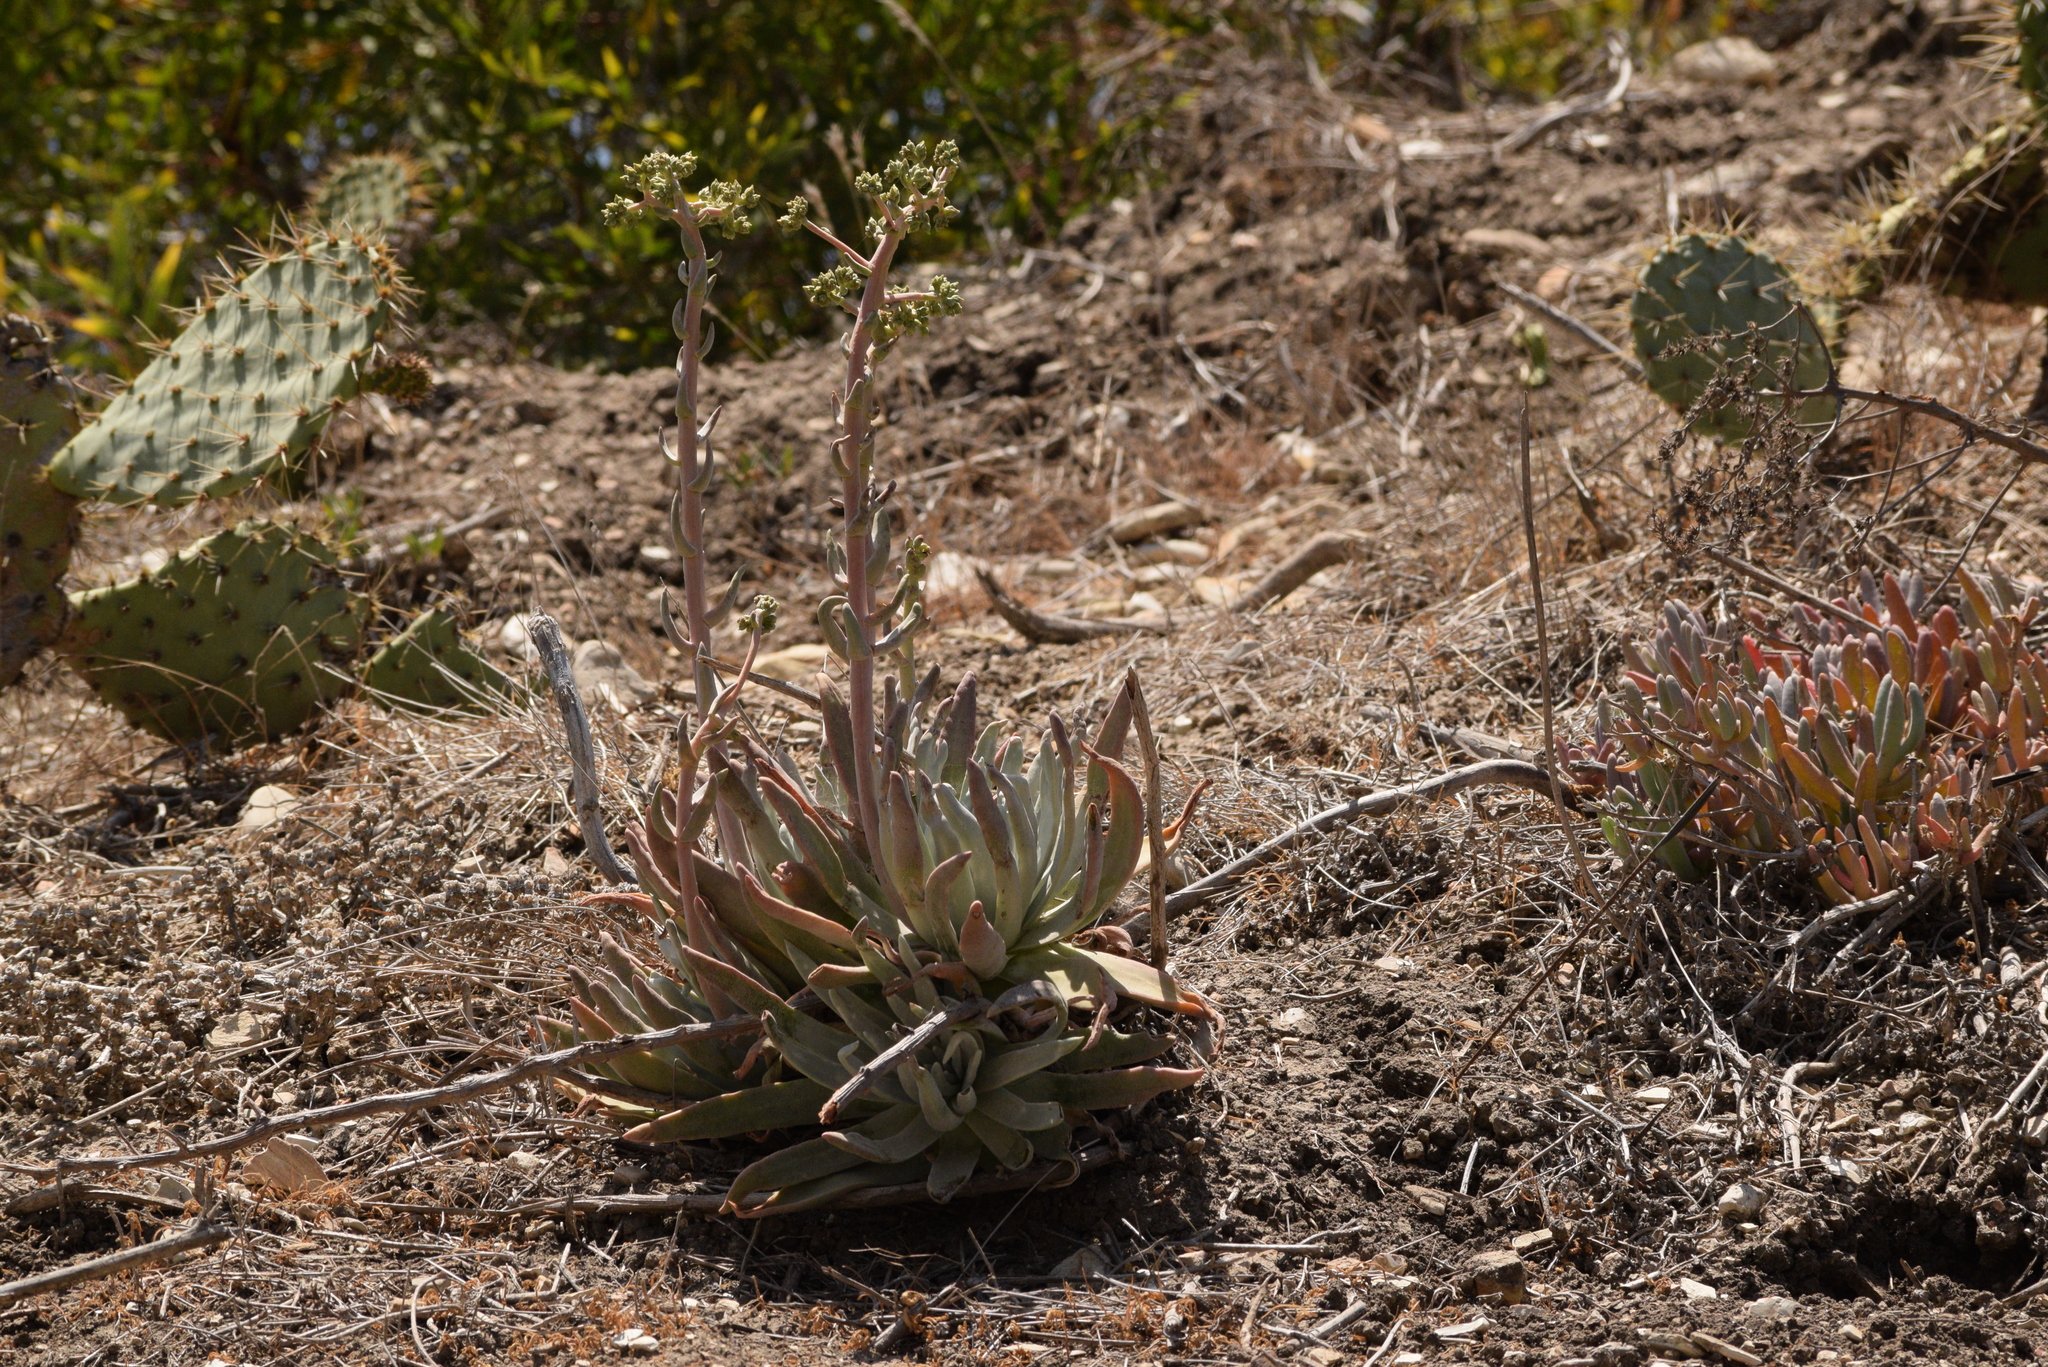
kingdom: Plantae
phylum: Tracheophyta
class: Magnoliopsida
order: Saxifragales
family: Crassulaceae
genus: Dudleya
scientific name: Dudleya virens
